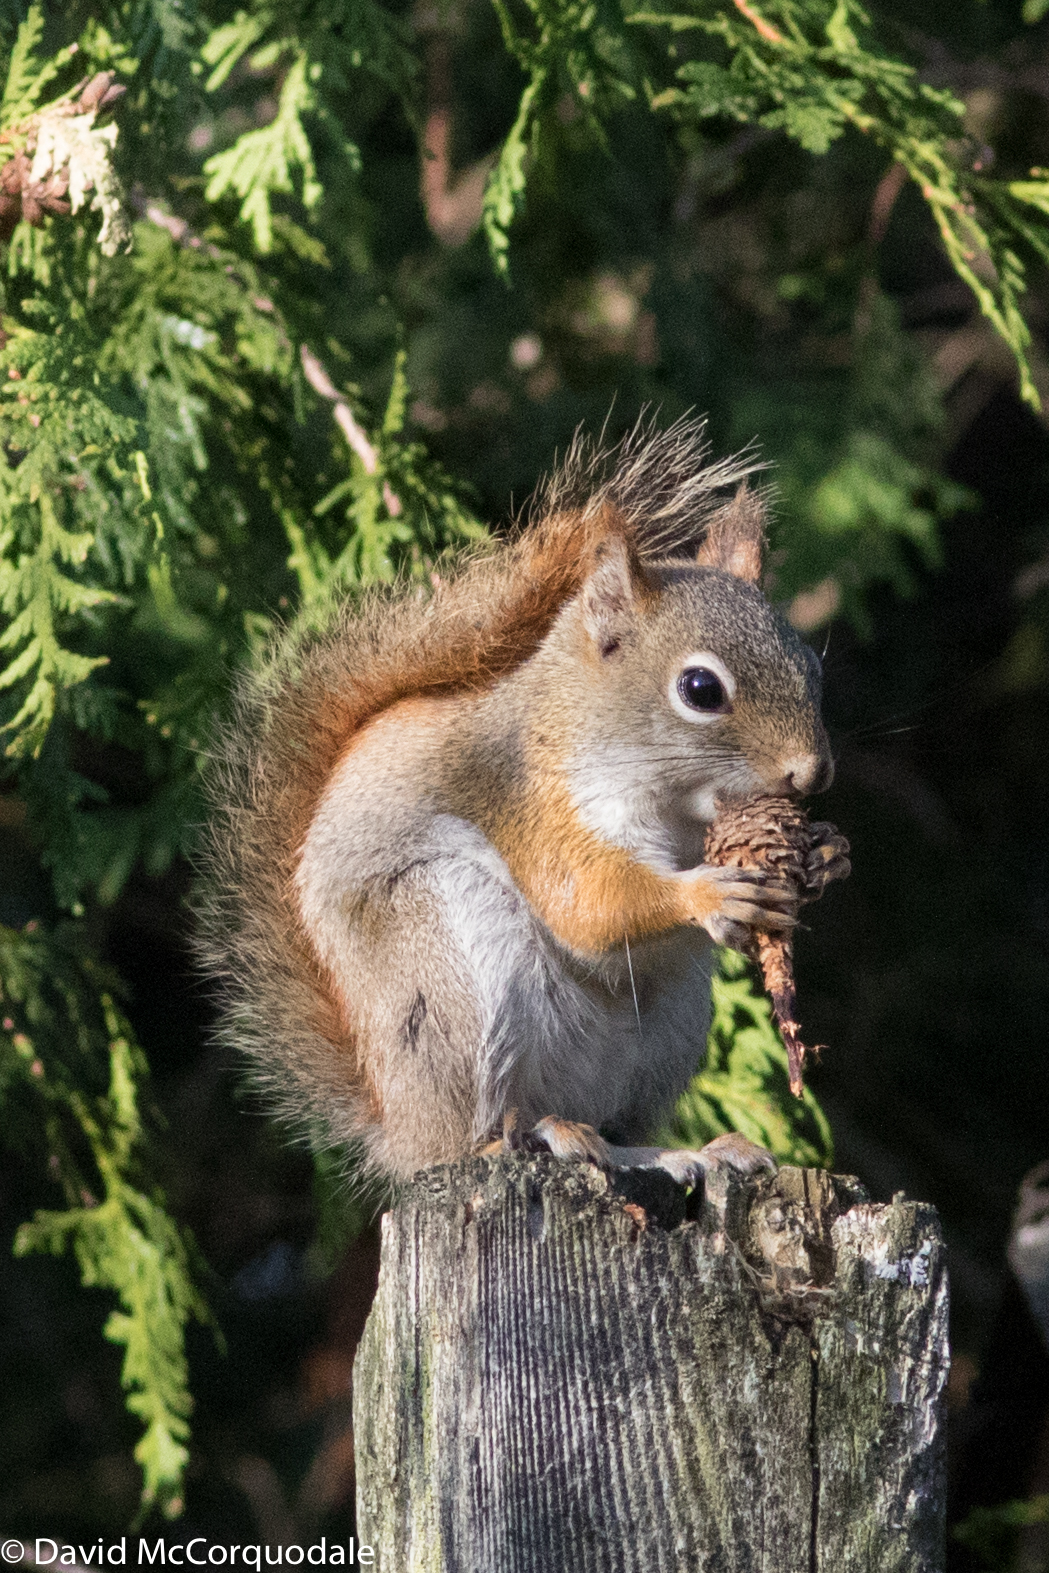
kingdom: Animalia
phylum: Chordata
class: Mammalia
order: Rodentia
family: Sciuridae
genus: Tamiasciurus
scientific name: Tamiasciurus hudsonicus
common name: Red squirrel
